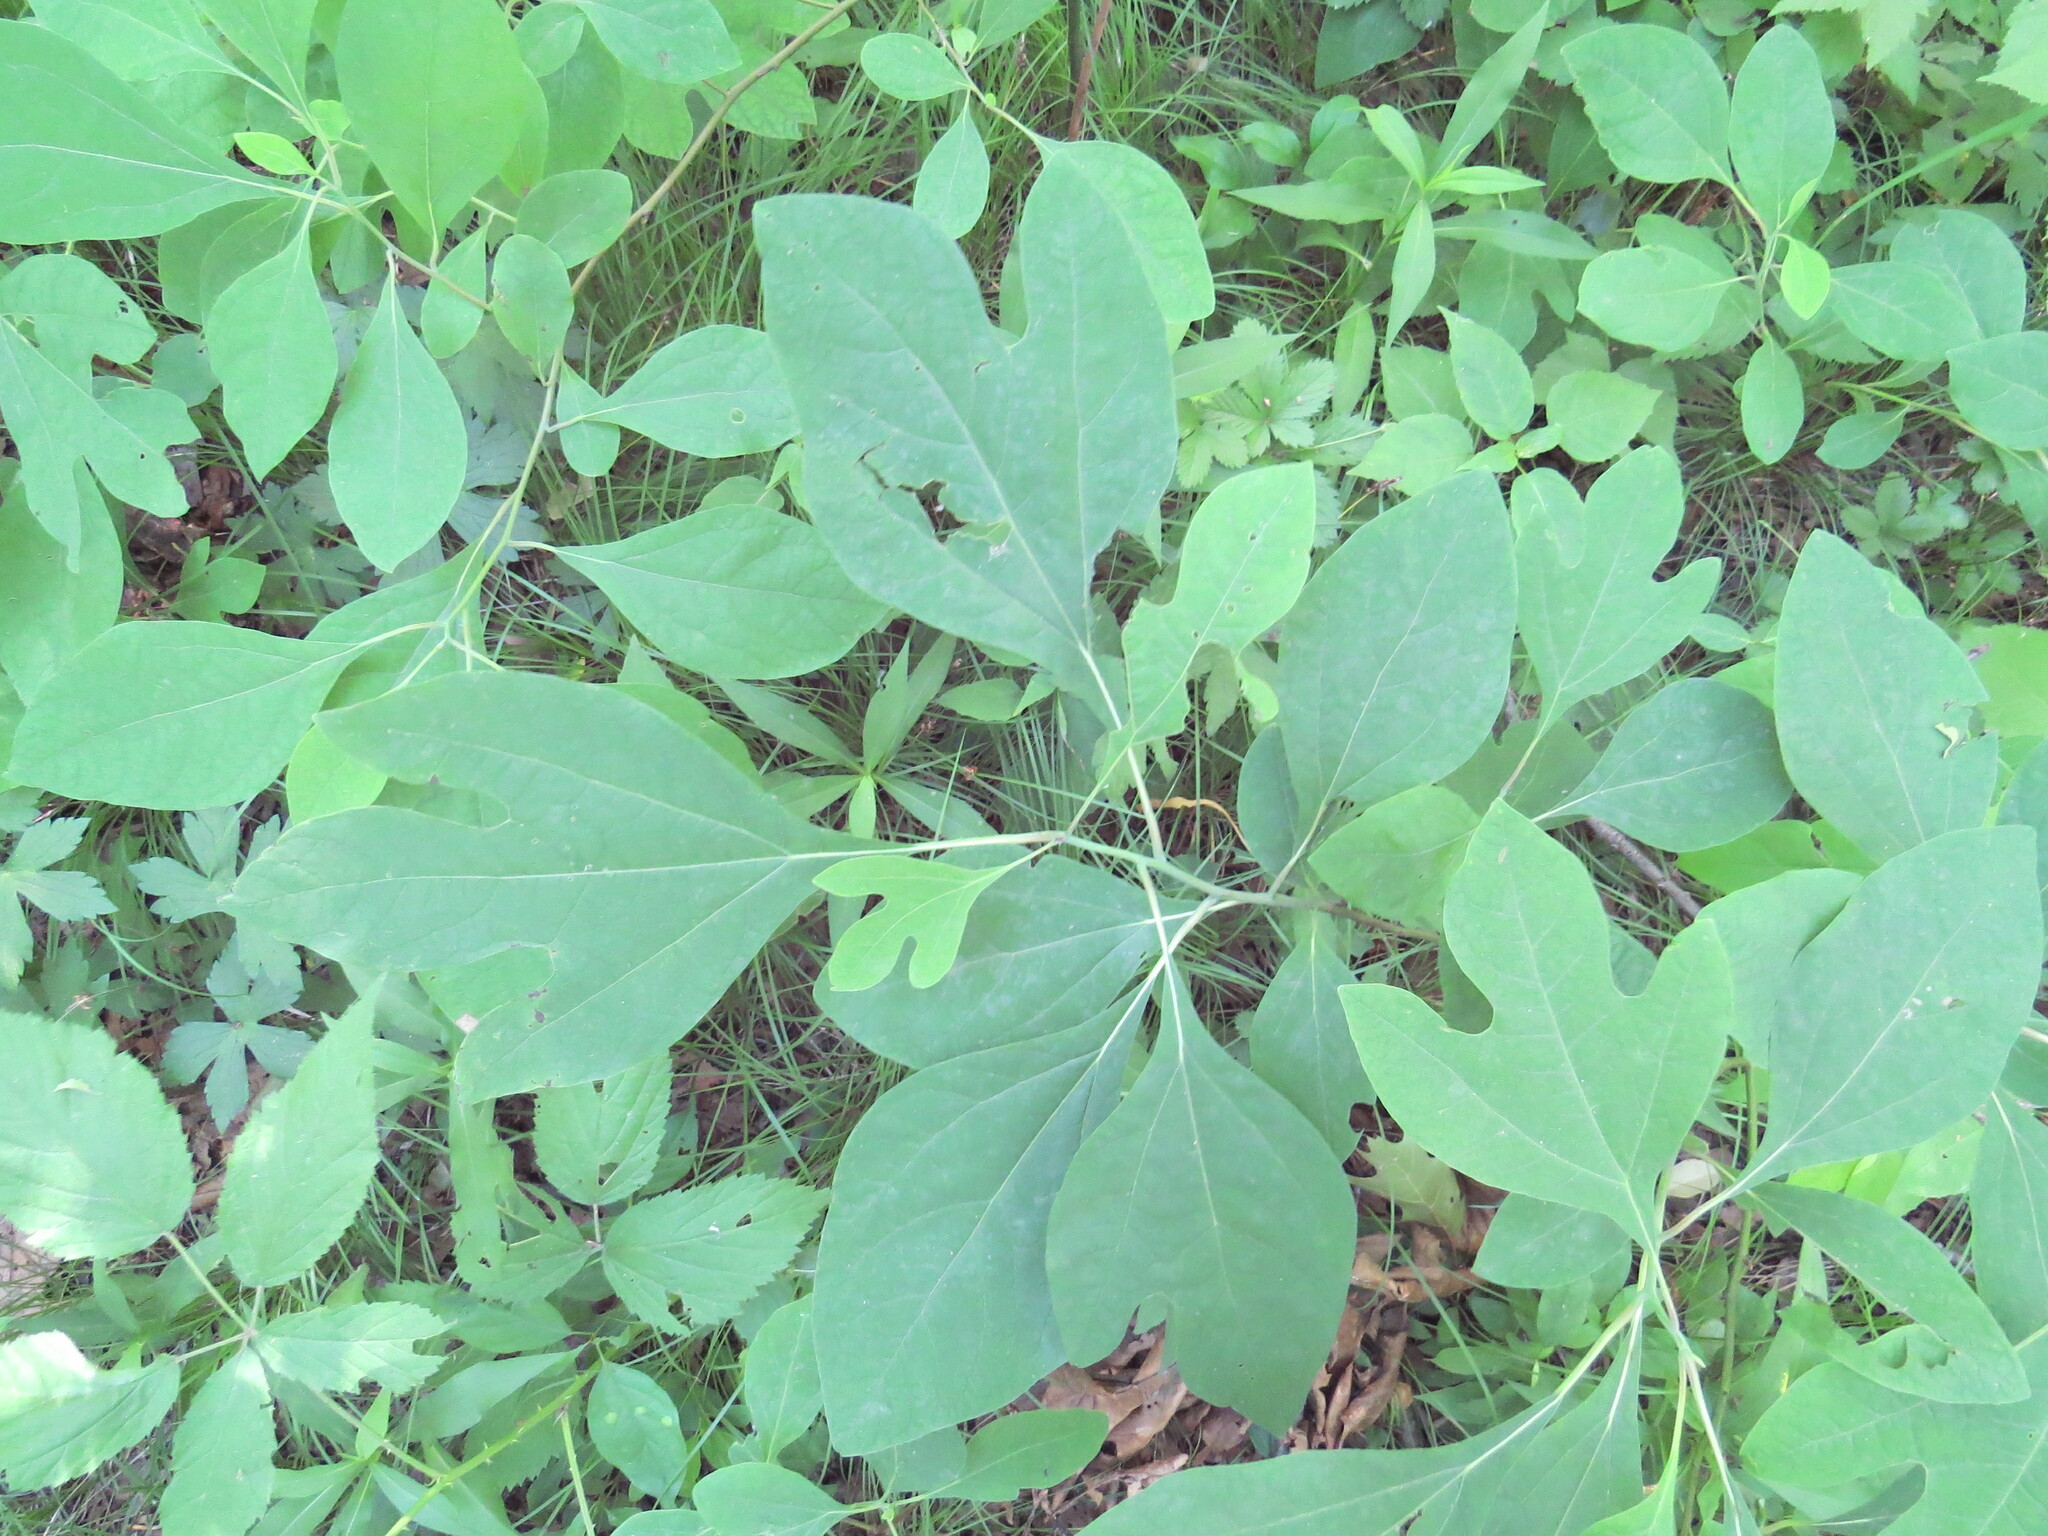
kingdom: Plantae
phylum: Tracheophyta
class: Magnoliopsida
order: Laurales
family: Lauraceae
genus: Sassafras
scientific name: Sassafras albidum
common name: Sassafras
